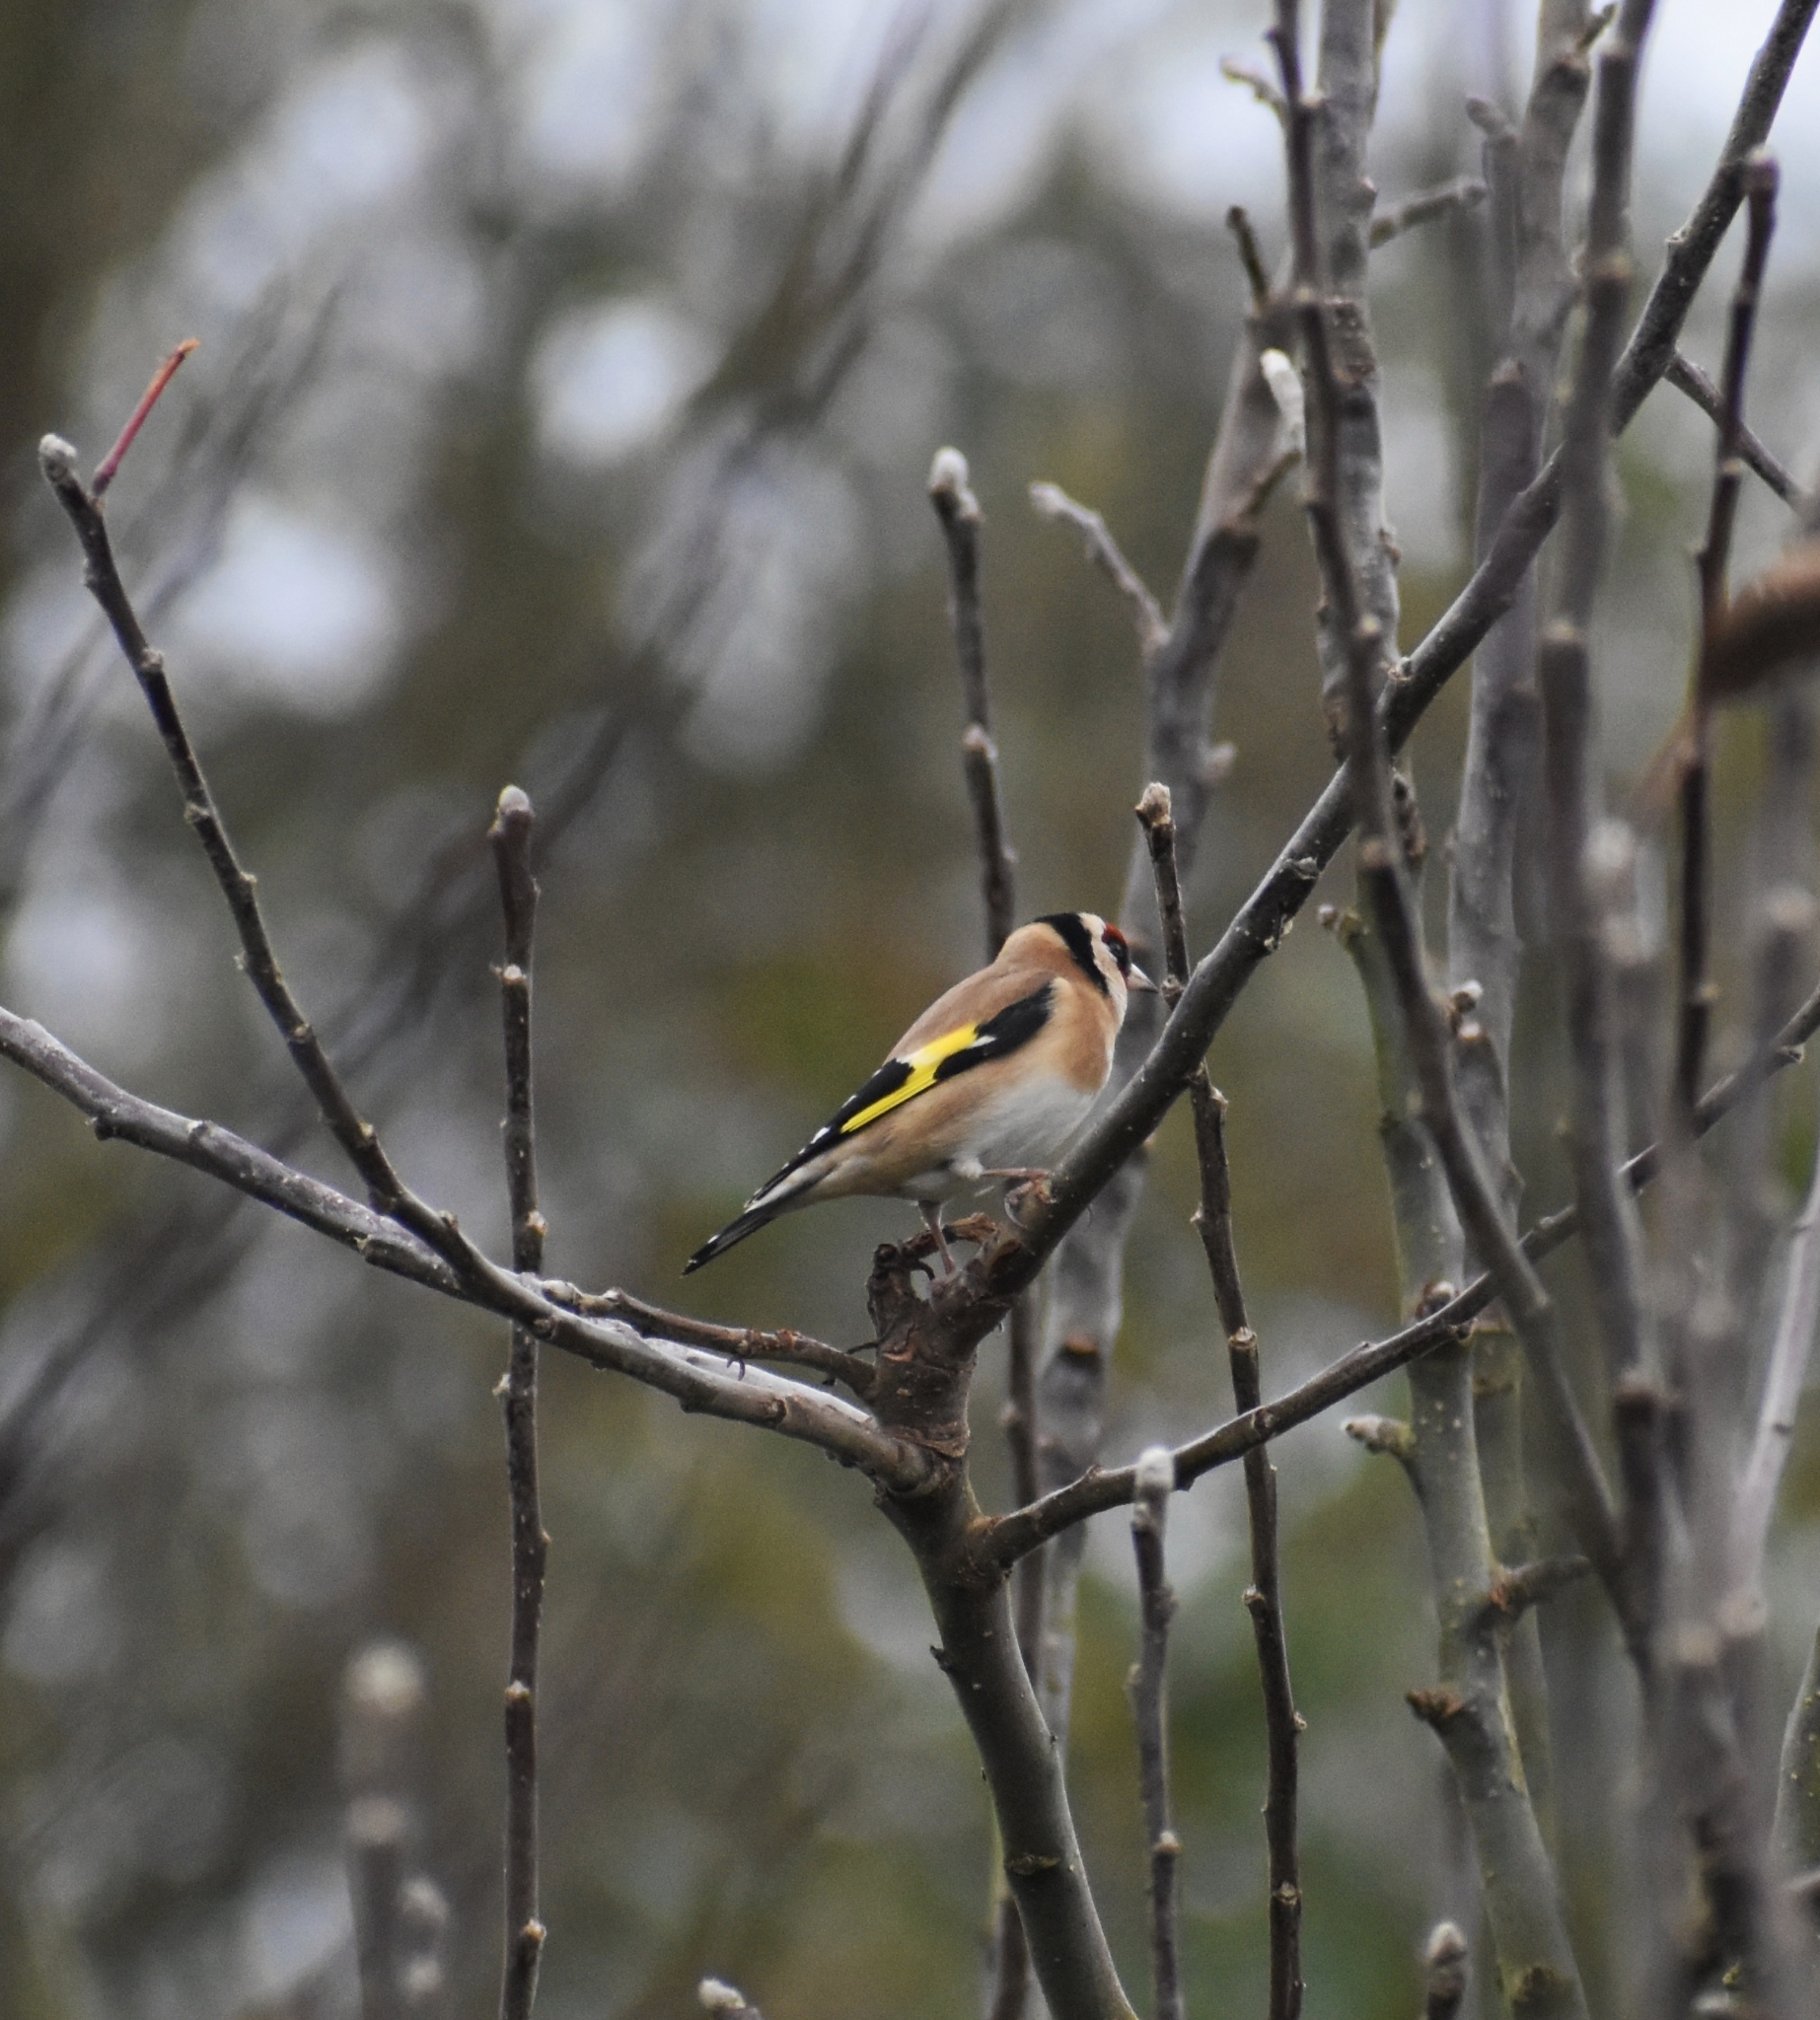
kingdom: Animalia
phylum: Chordata
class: Aves
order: Passeriformes
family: Fringillidae
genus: Carduelis
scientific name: Carduelis carduelis
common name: European goldfinch
